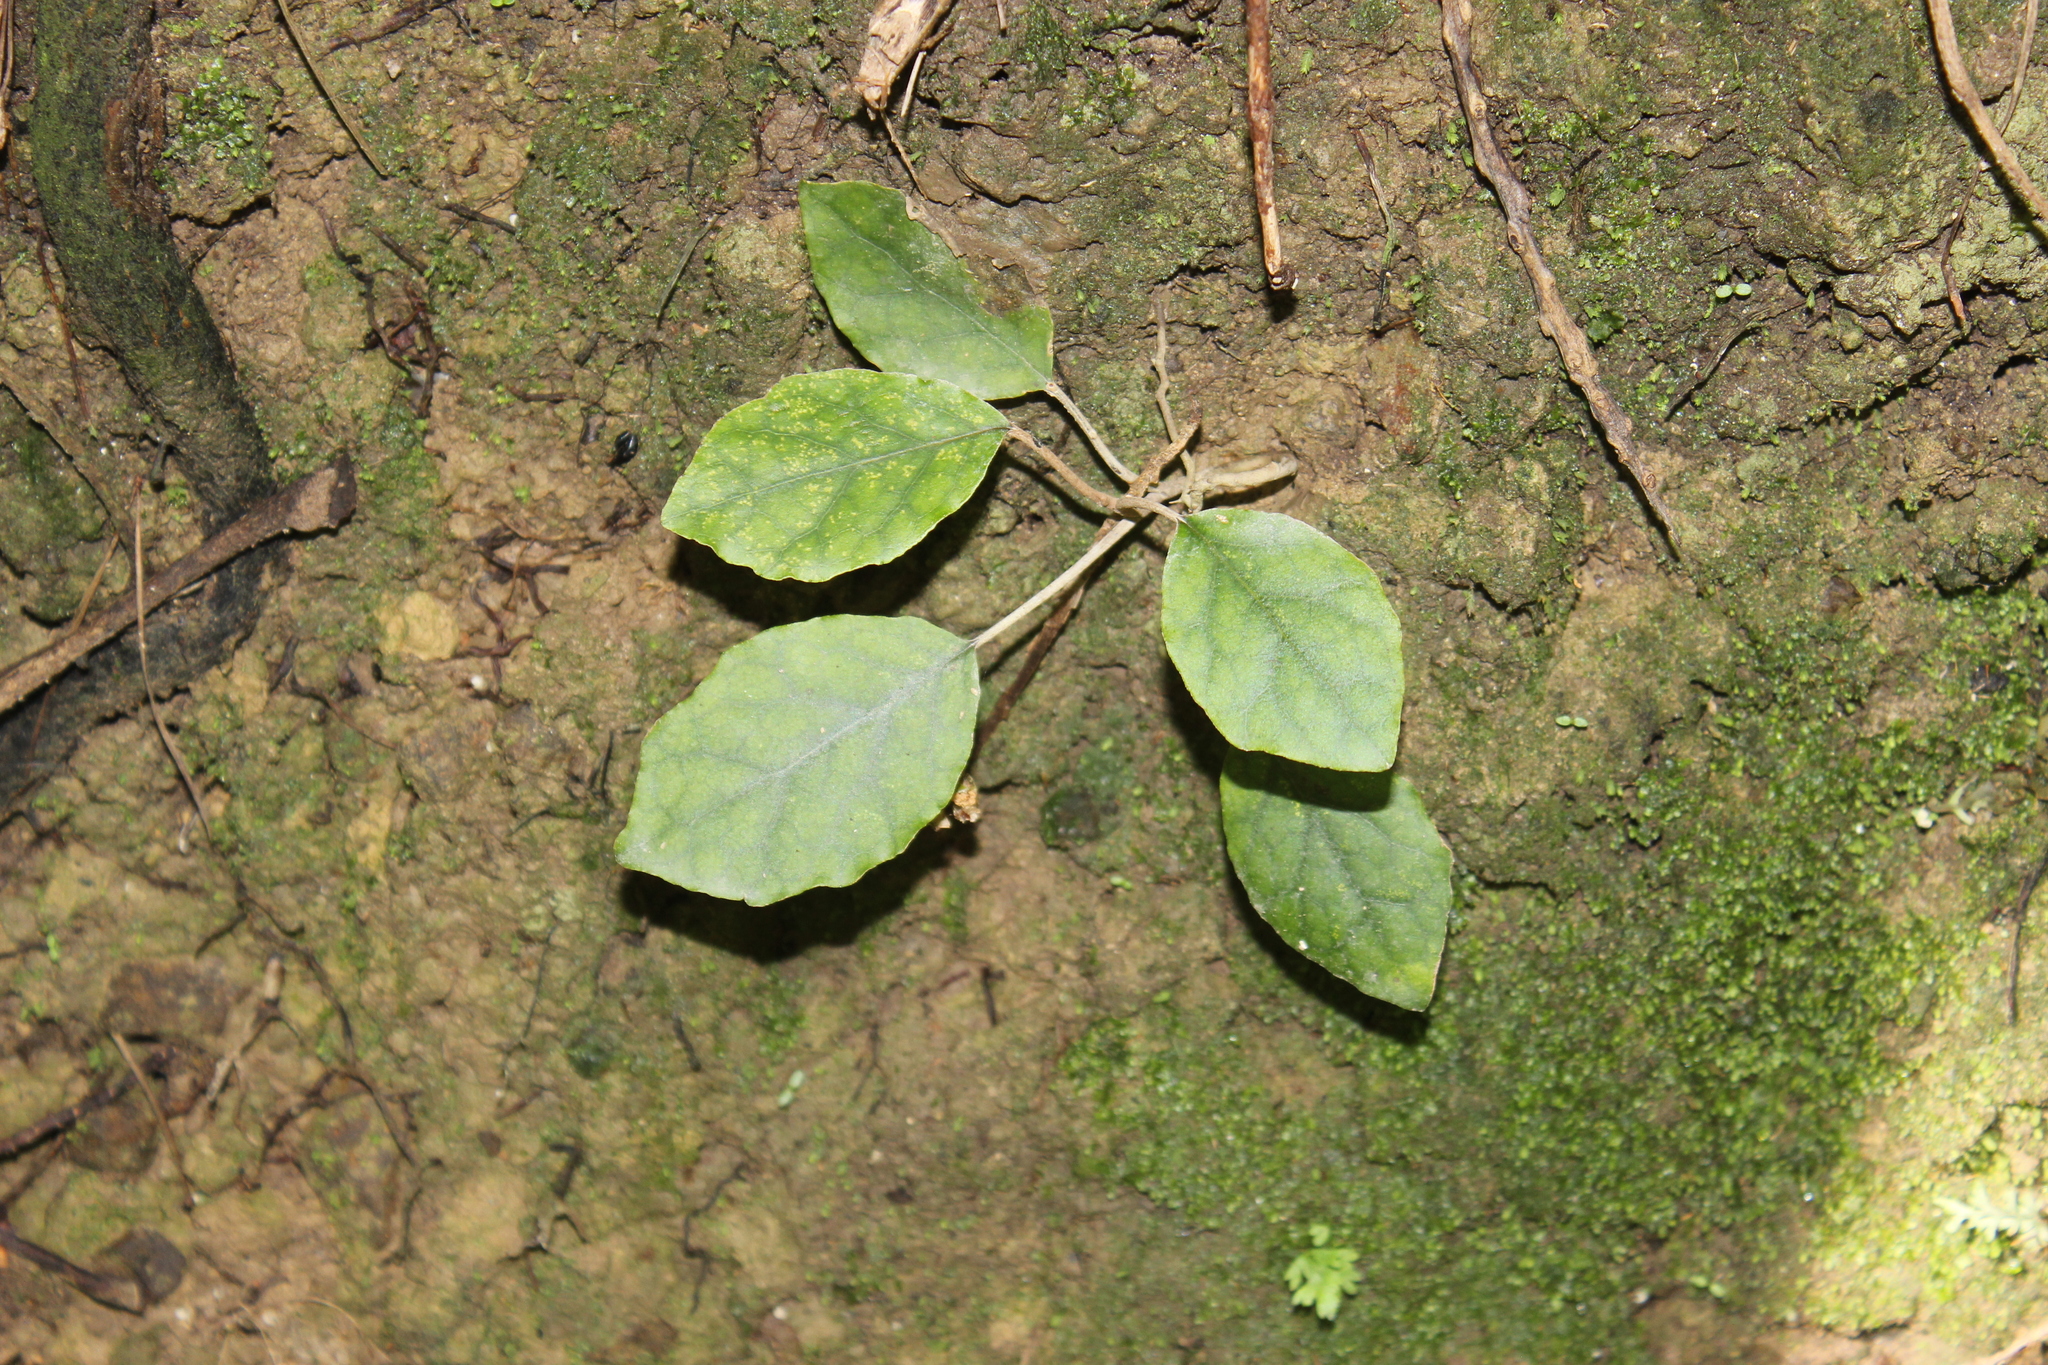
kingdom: Plantae
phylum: Tracheophyta
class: Magnoliopsida
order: Asterales
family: Asteraceae
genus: Brachyglottis
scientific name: Brachyglottis repanda
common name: Hedge ragwort
